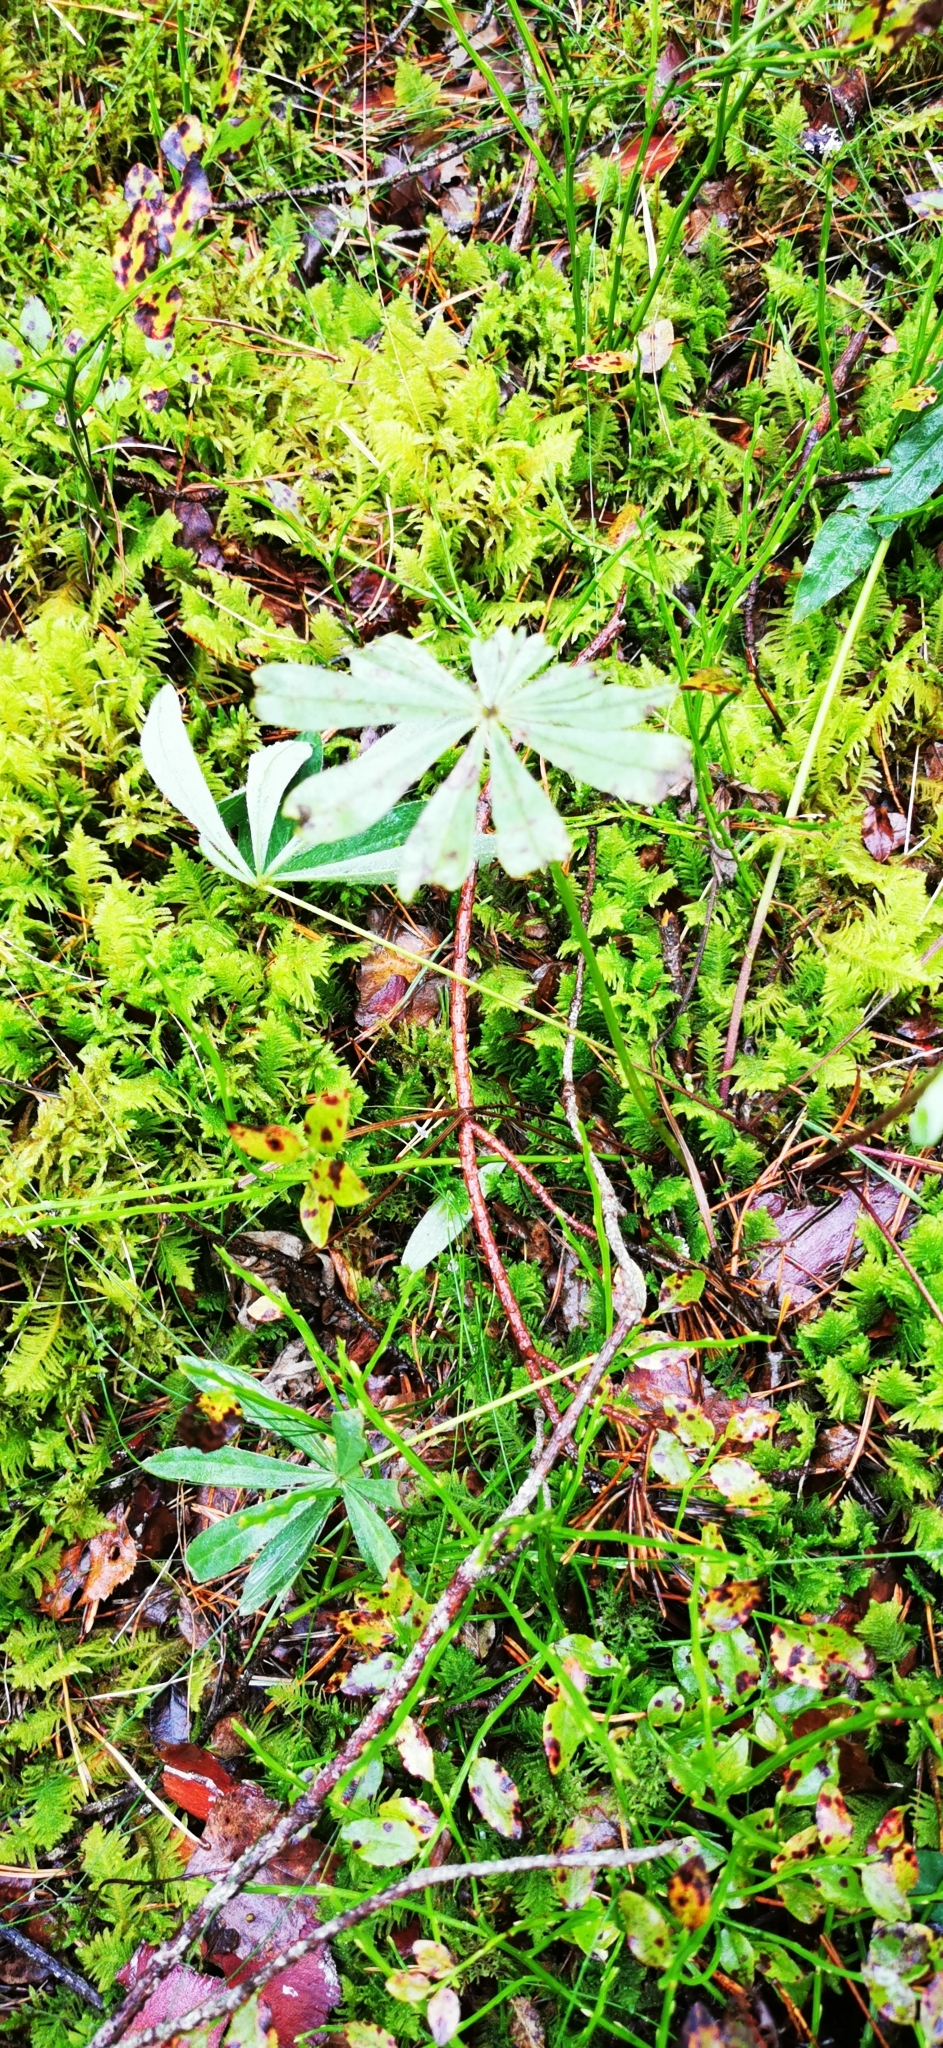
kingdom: Plantae
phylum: Tracheophyta
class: Magnoliopsida
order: Fabales
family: Fabaceae
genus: Lupinus
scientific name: Lupinus polyphyllus
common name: Garden lupin
